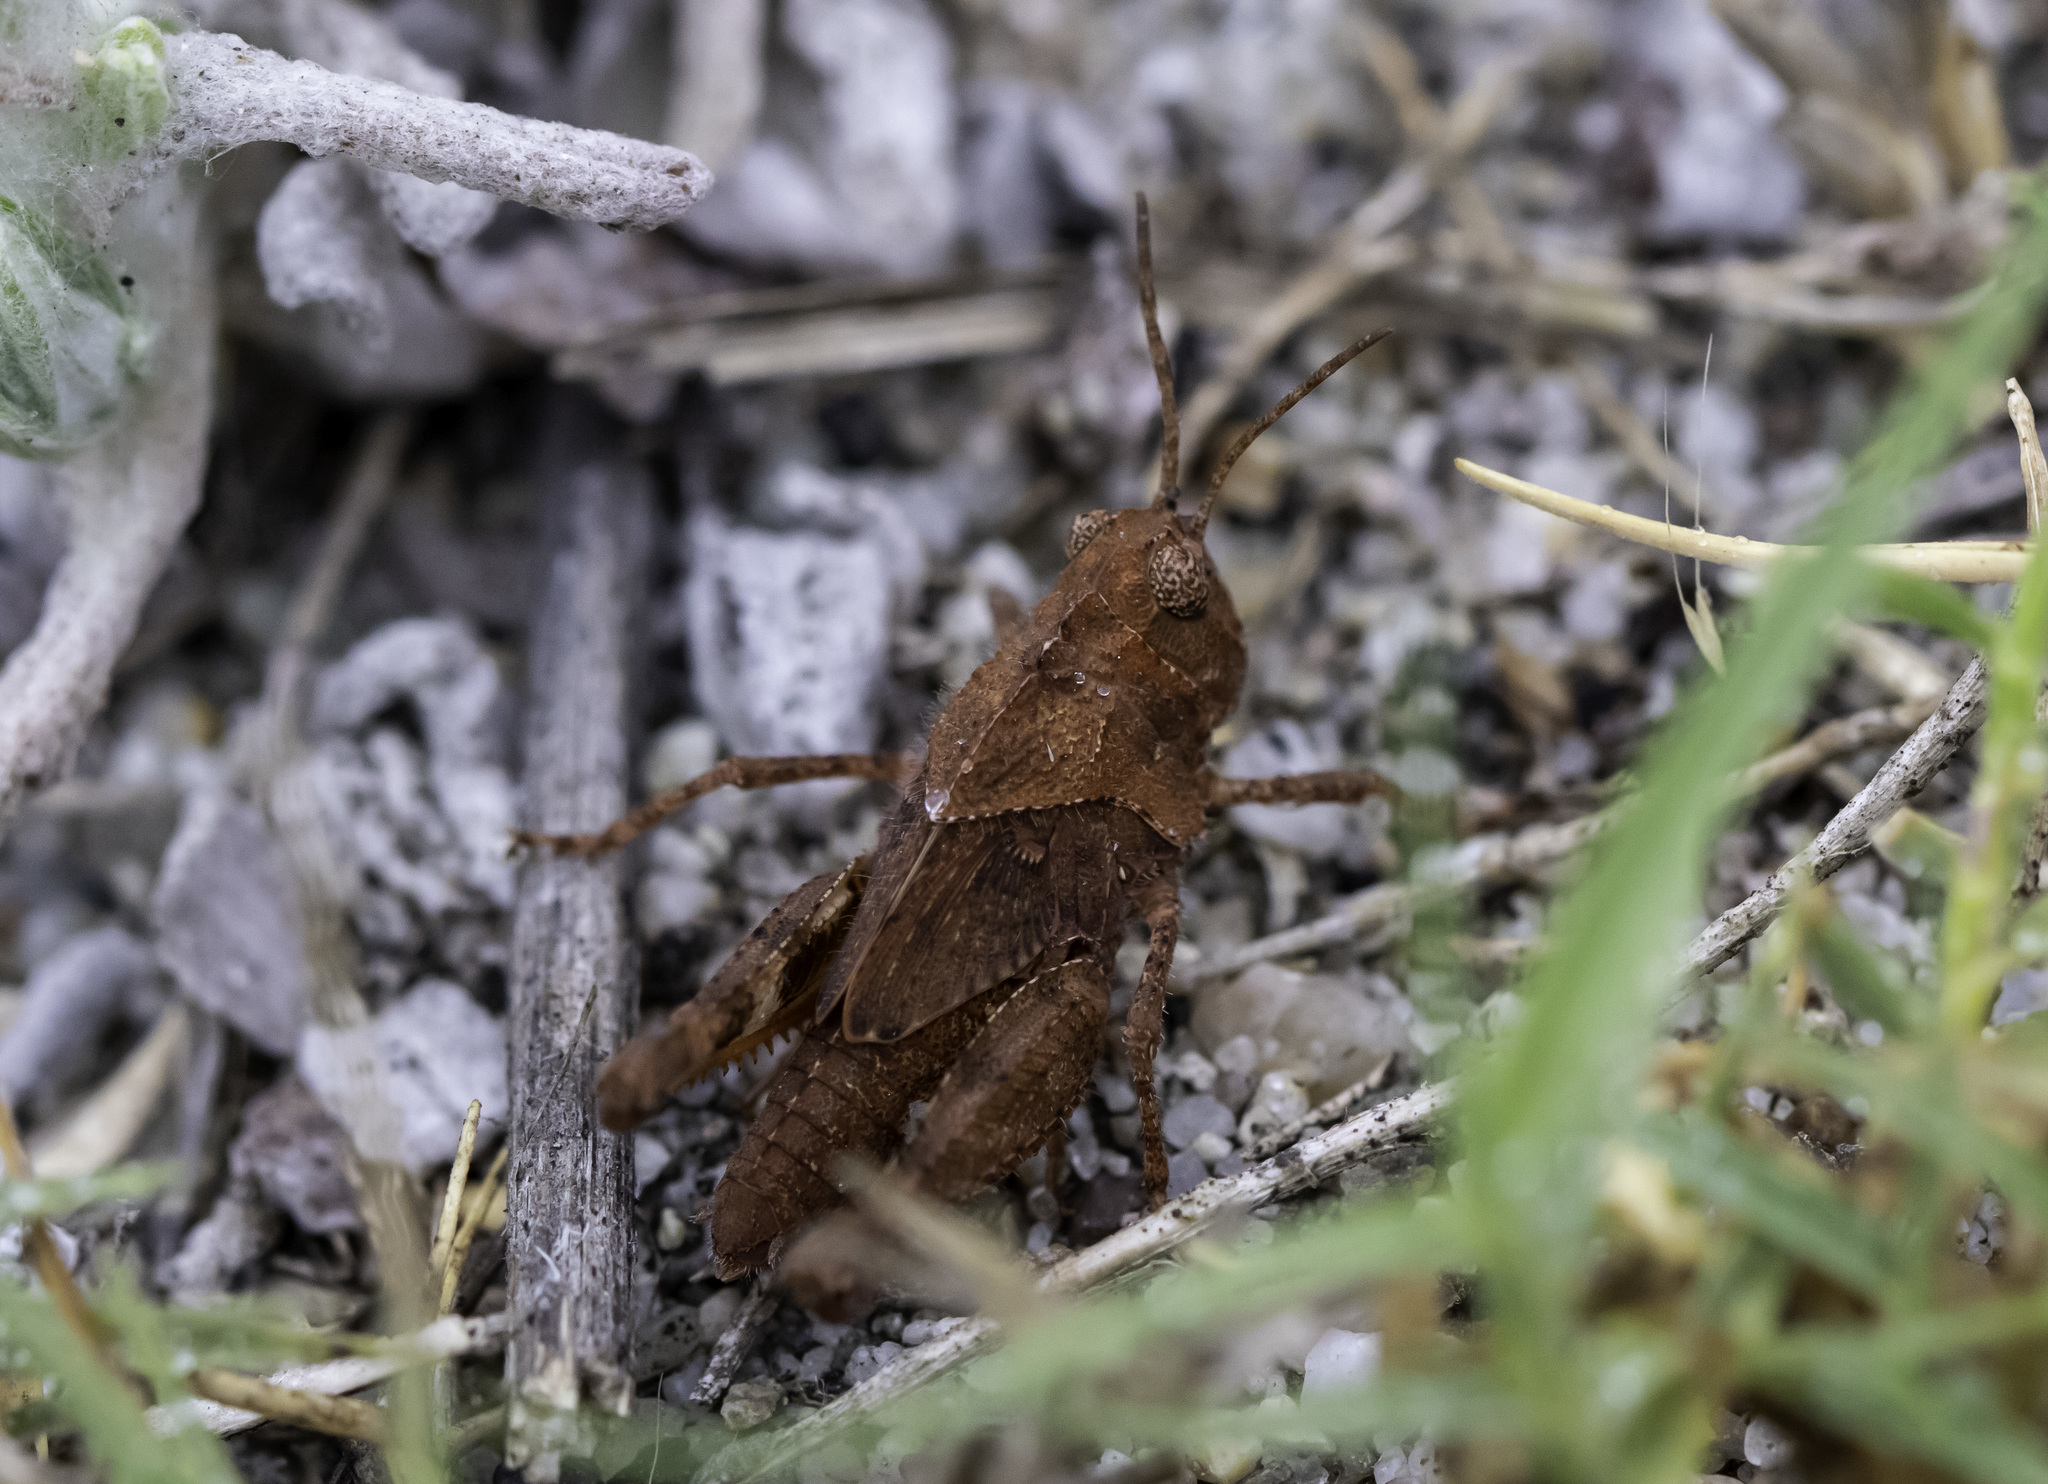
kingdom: Animalia
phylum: Arthropoda
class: Insecta
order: Orthoptera
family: Acrididae
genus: Conozoa
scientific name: Conozoa sulcifrons
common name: Groove-headed grasshopper
